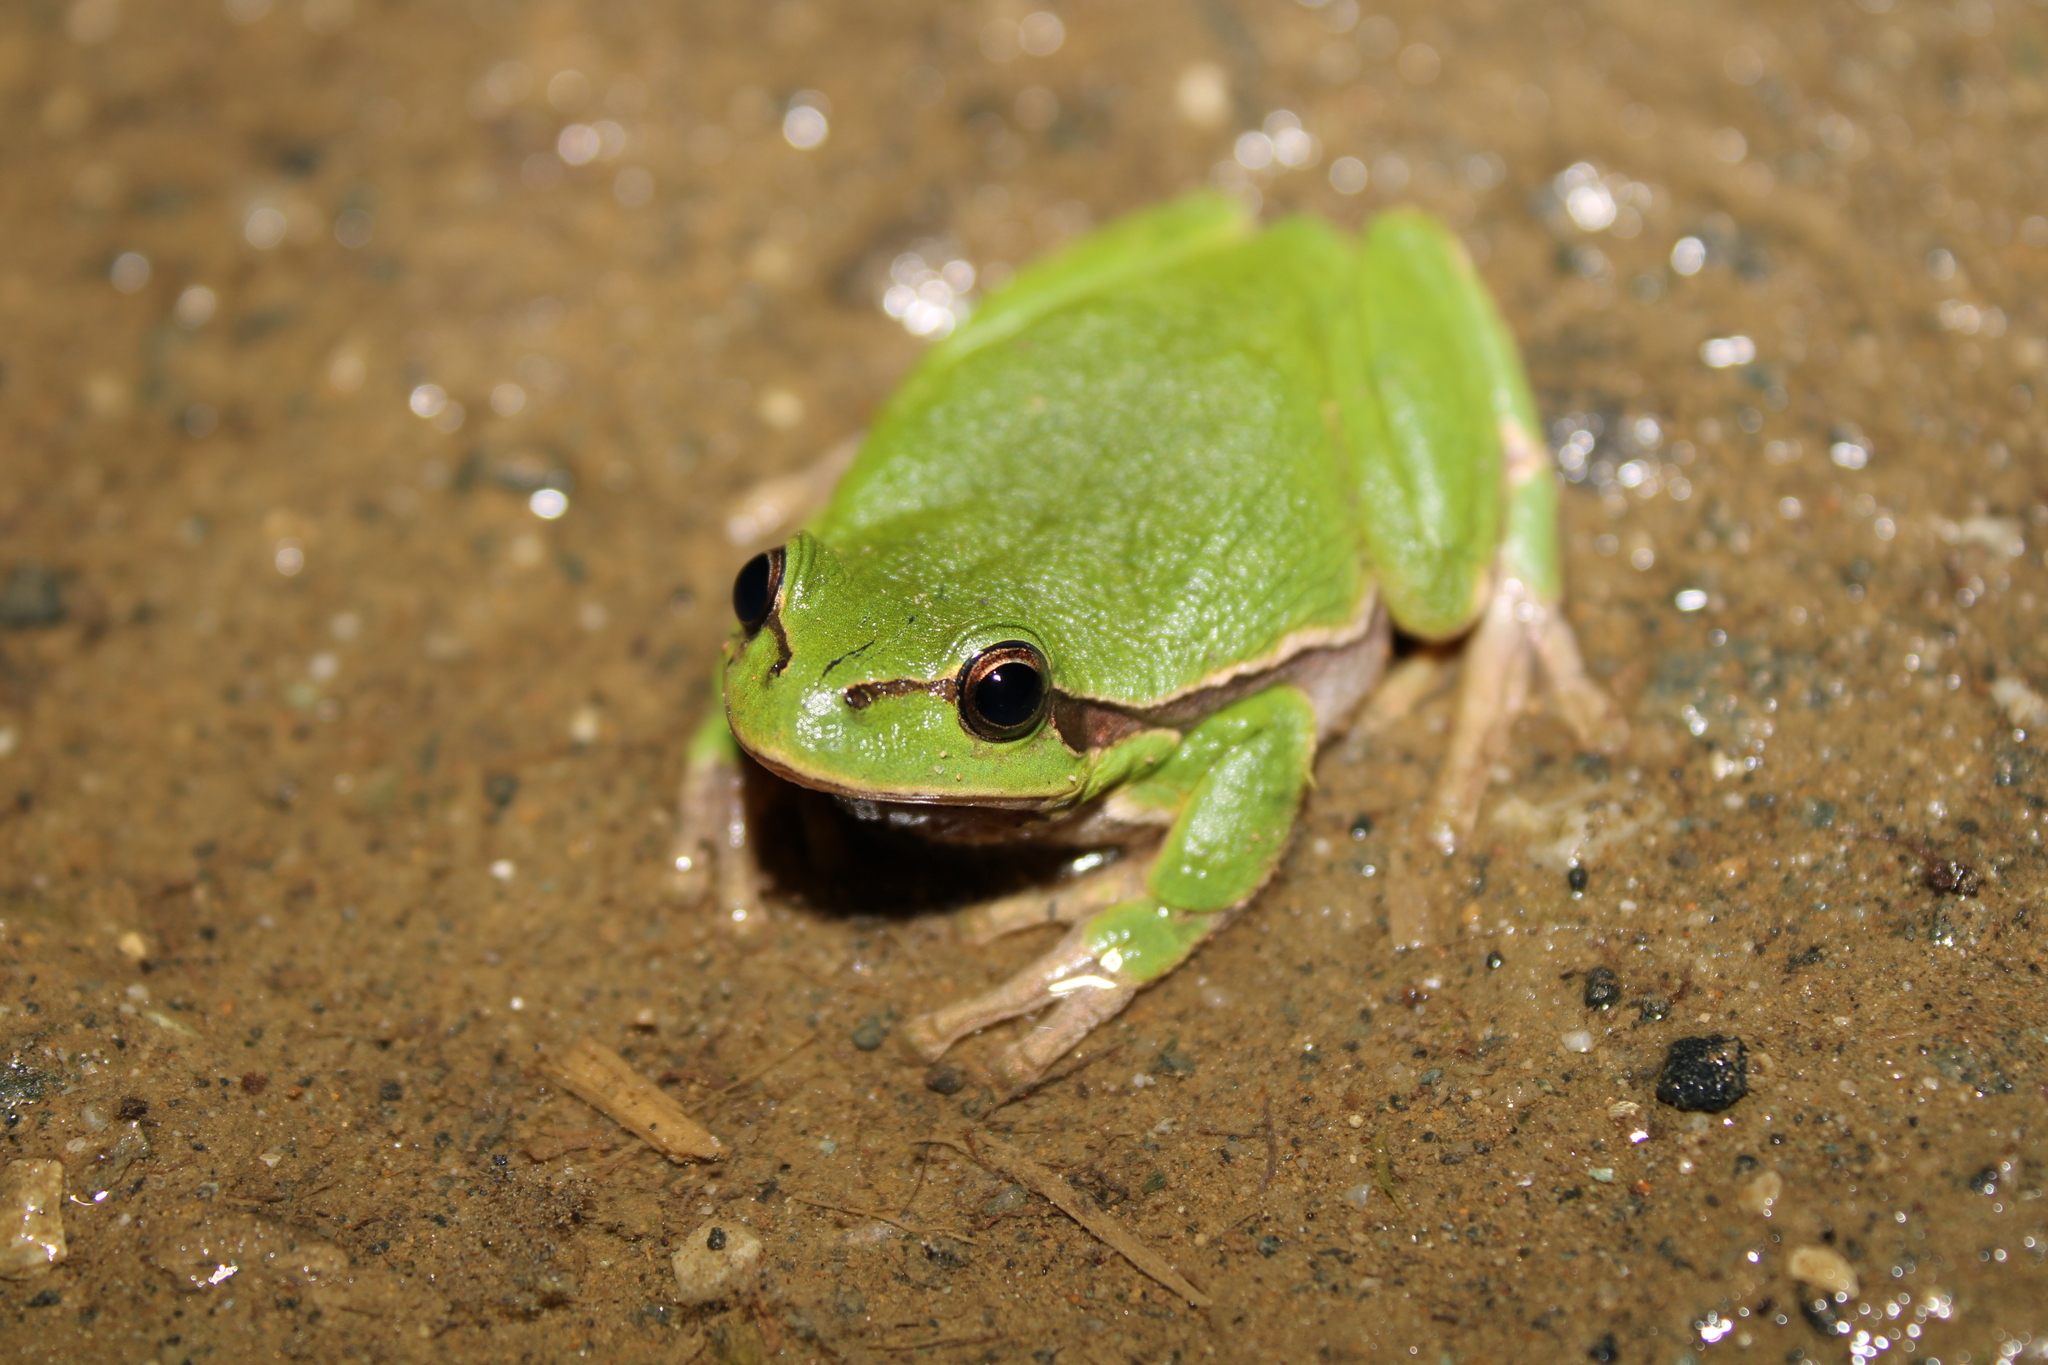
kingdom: Animalia
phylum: Chordata
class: Amphibia
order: Anura
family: Hylidae
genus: Hyla
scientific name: Hyla arborea
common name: Common tree frog
